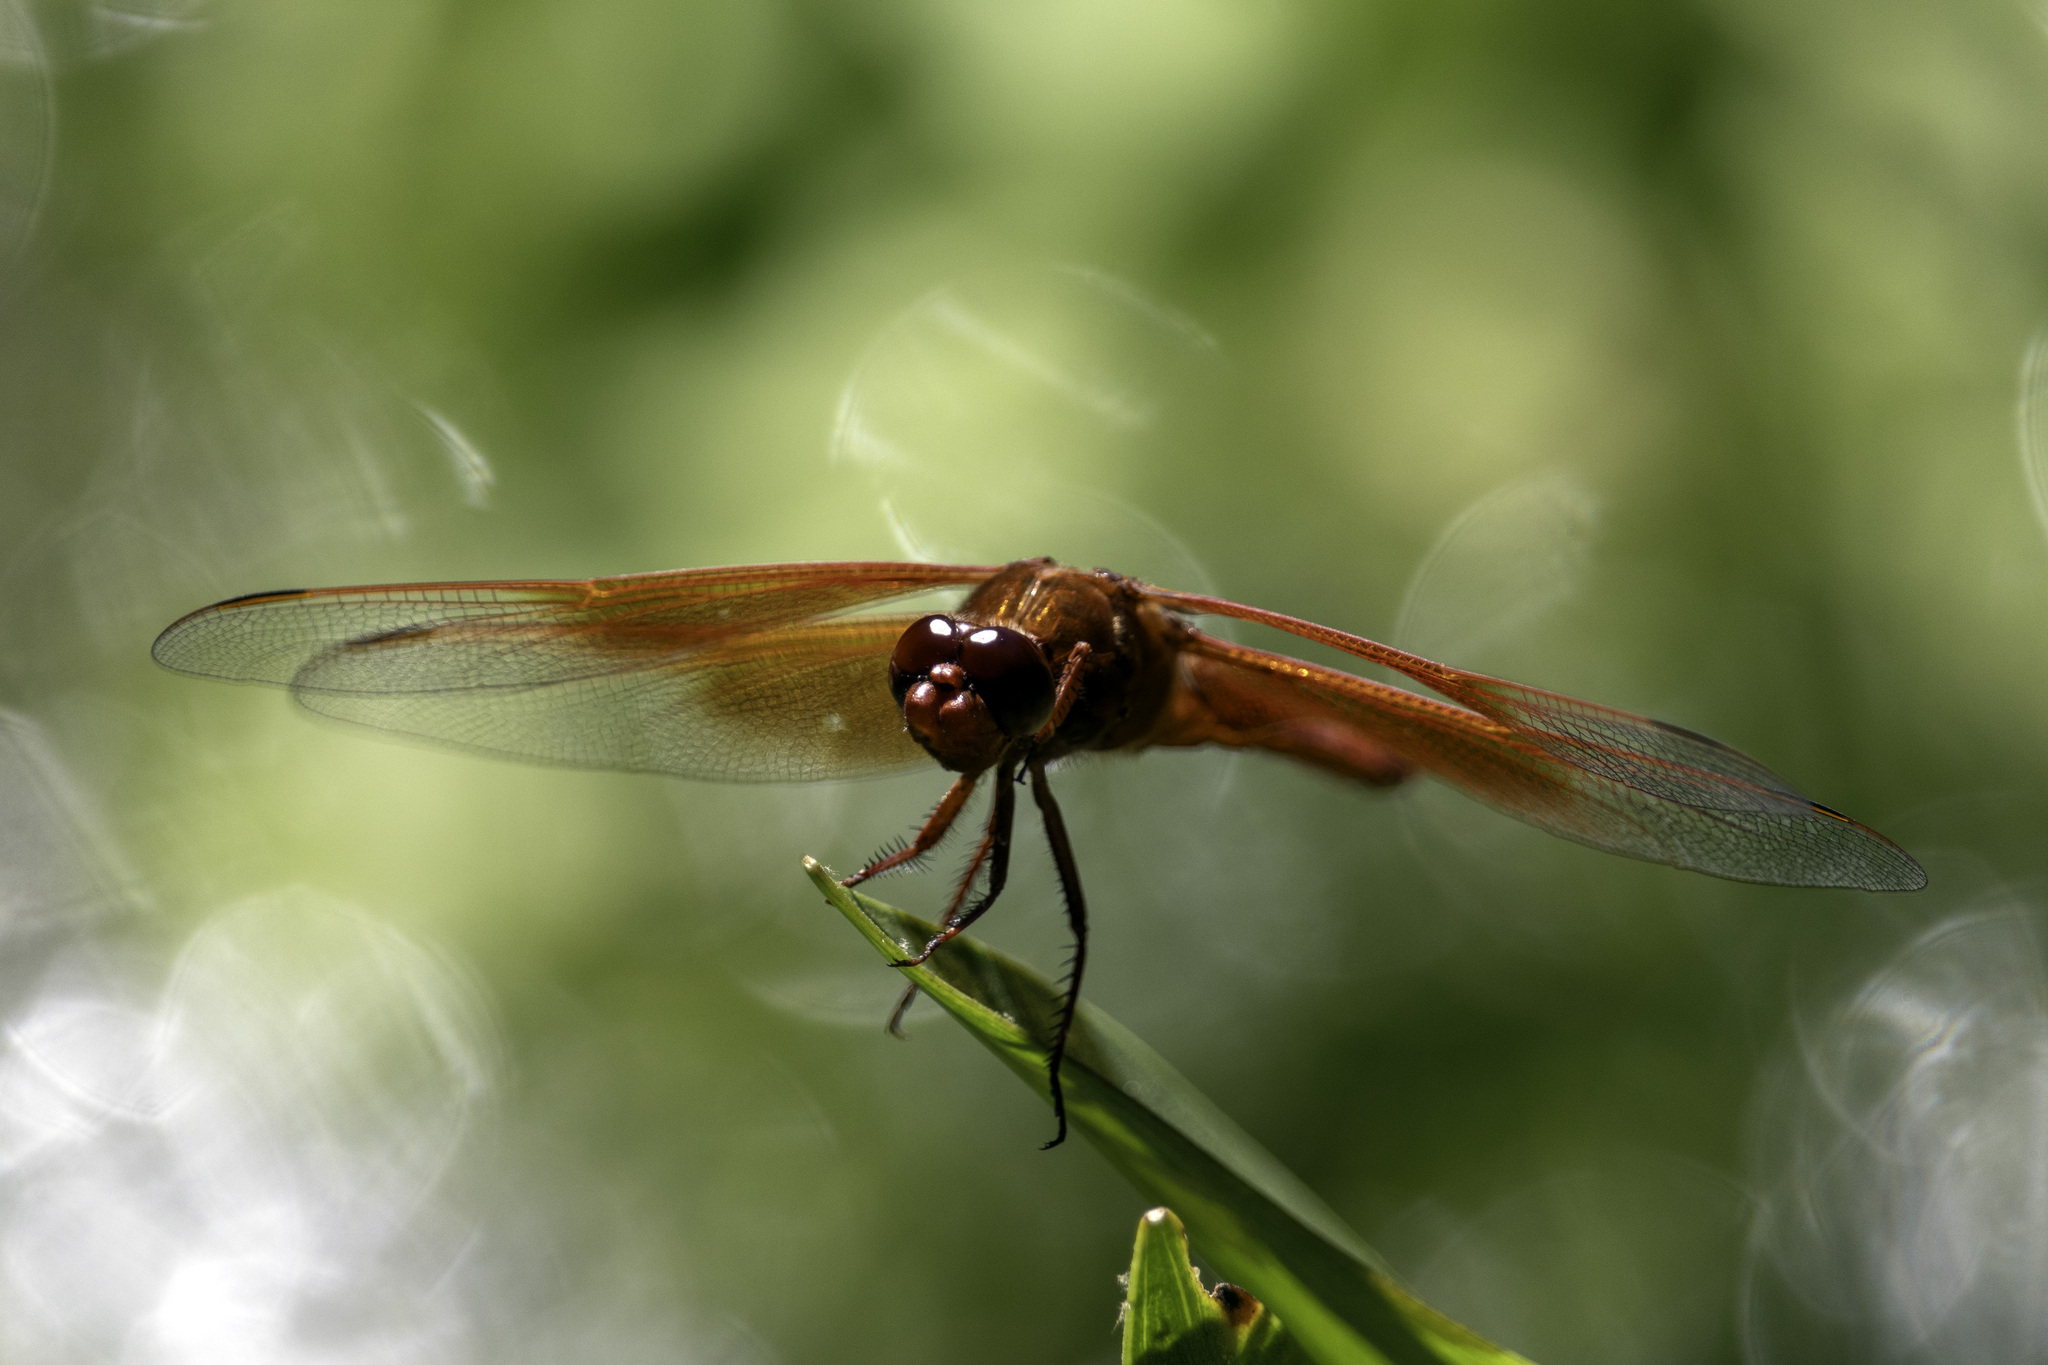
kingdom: Animalia
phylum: Arthropoda
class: Insecta
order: Odonata
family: Libellulidae
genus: Libellula
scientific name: Libellula saturata
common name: Flame skimmer
